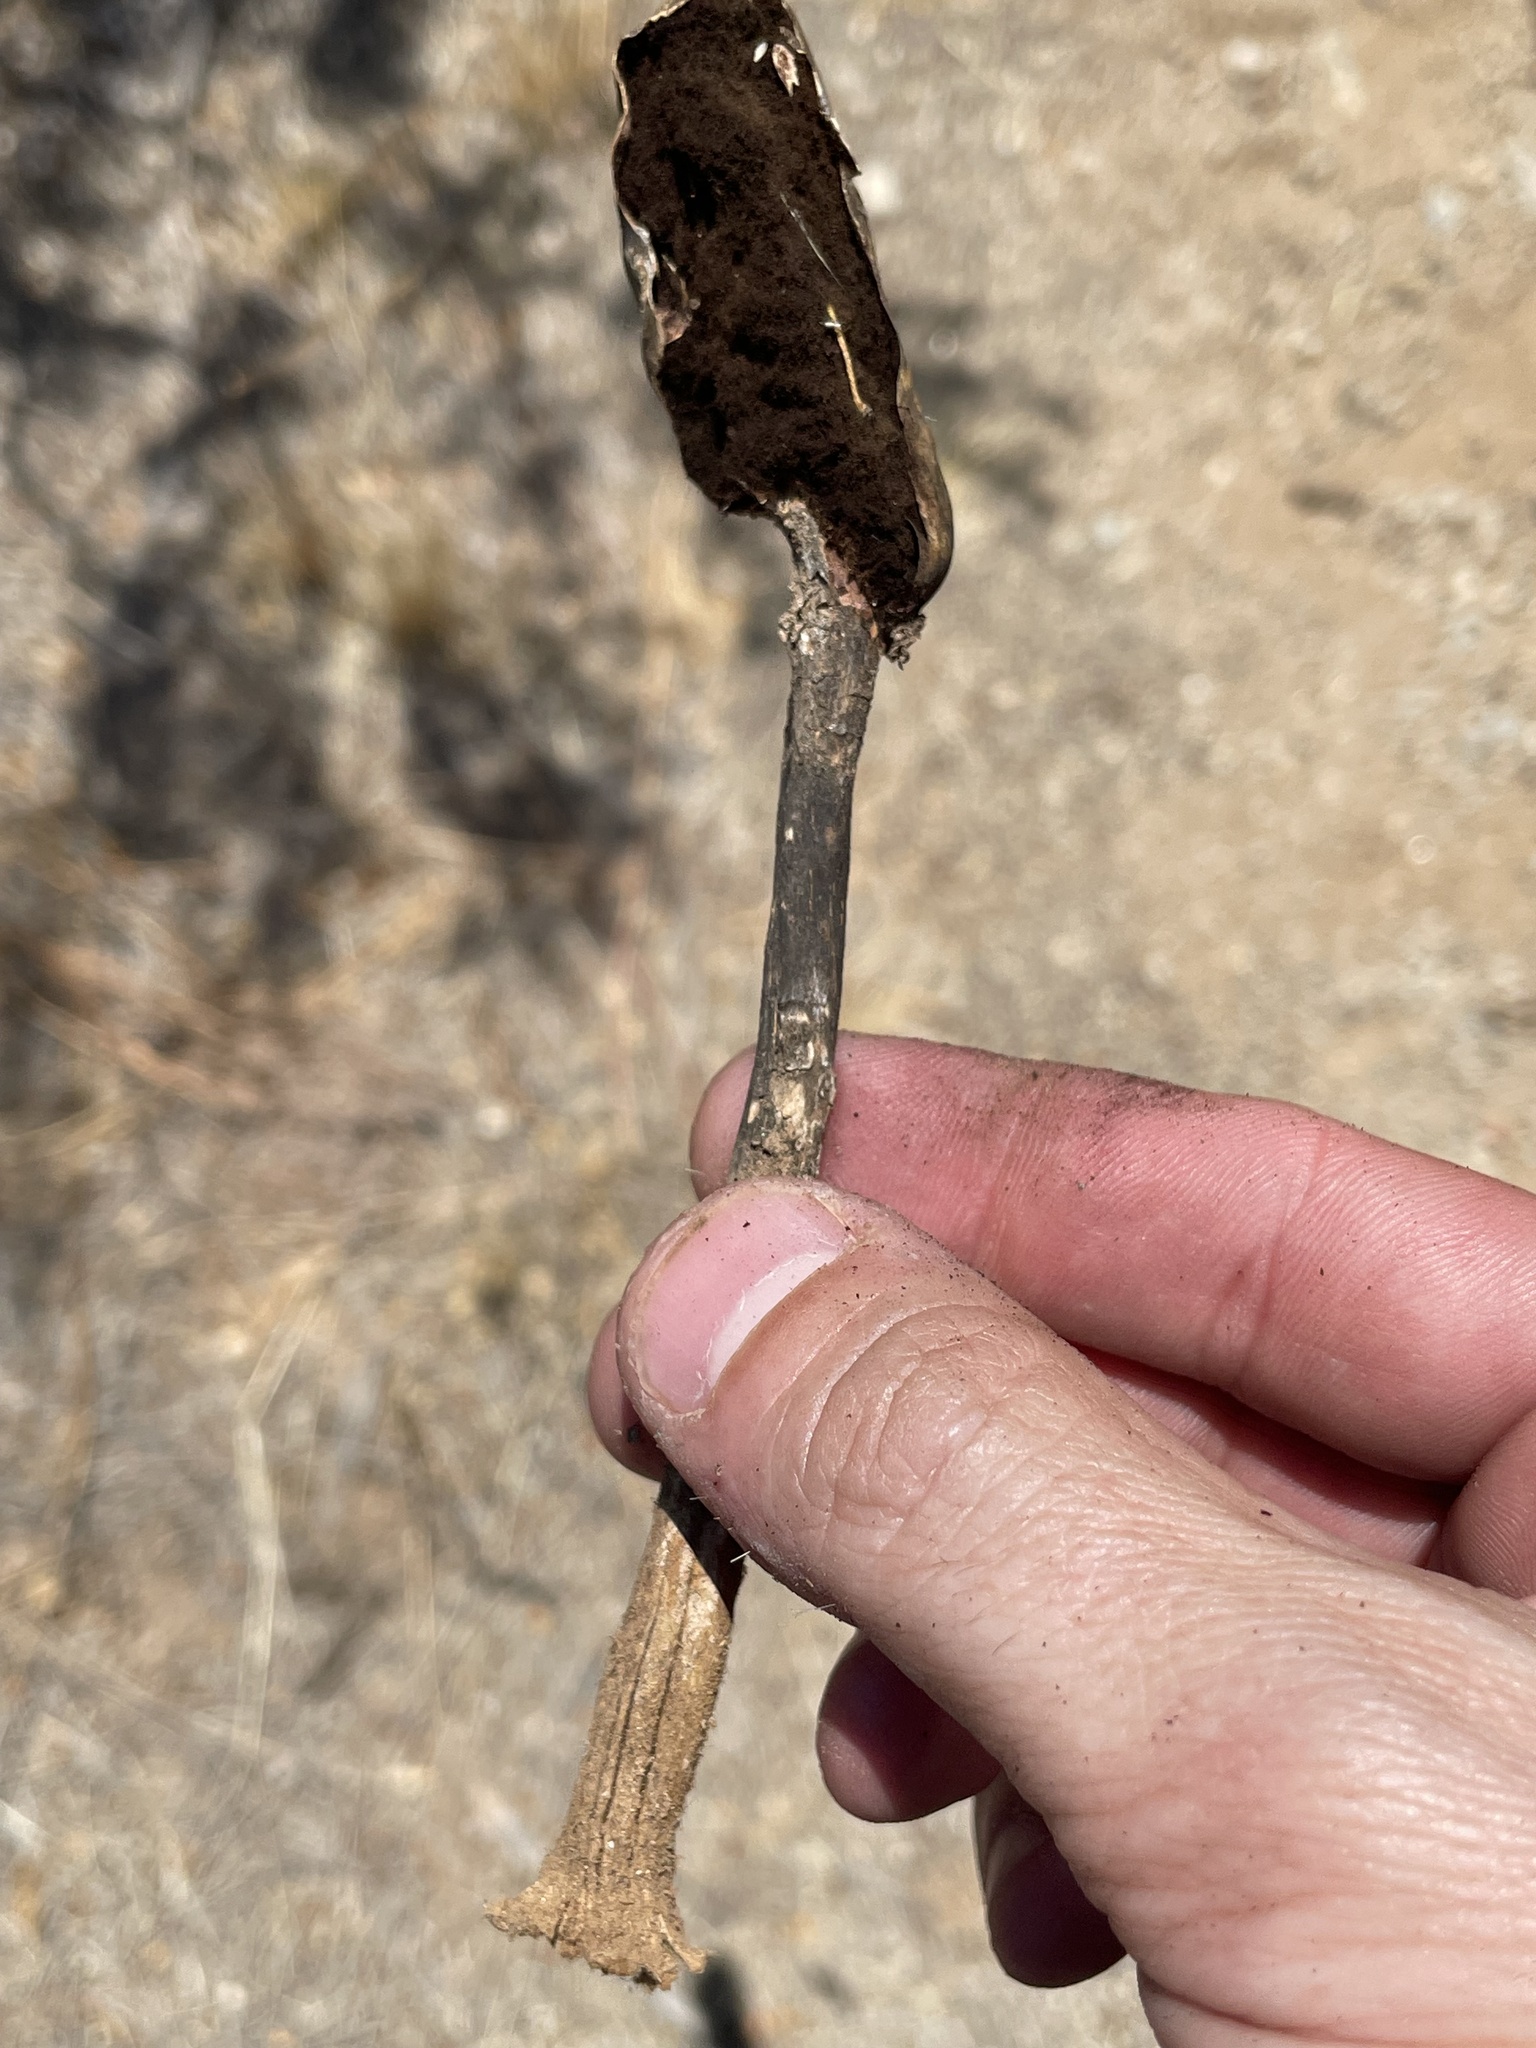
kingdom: Fungi
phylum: Basidiomycota
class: Agaricomycetes
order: Agaricales
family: Agaricaceae
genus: Podaxis
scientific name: Podaxis pistillaris
